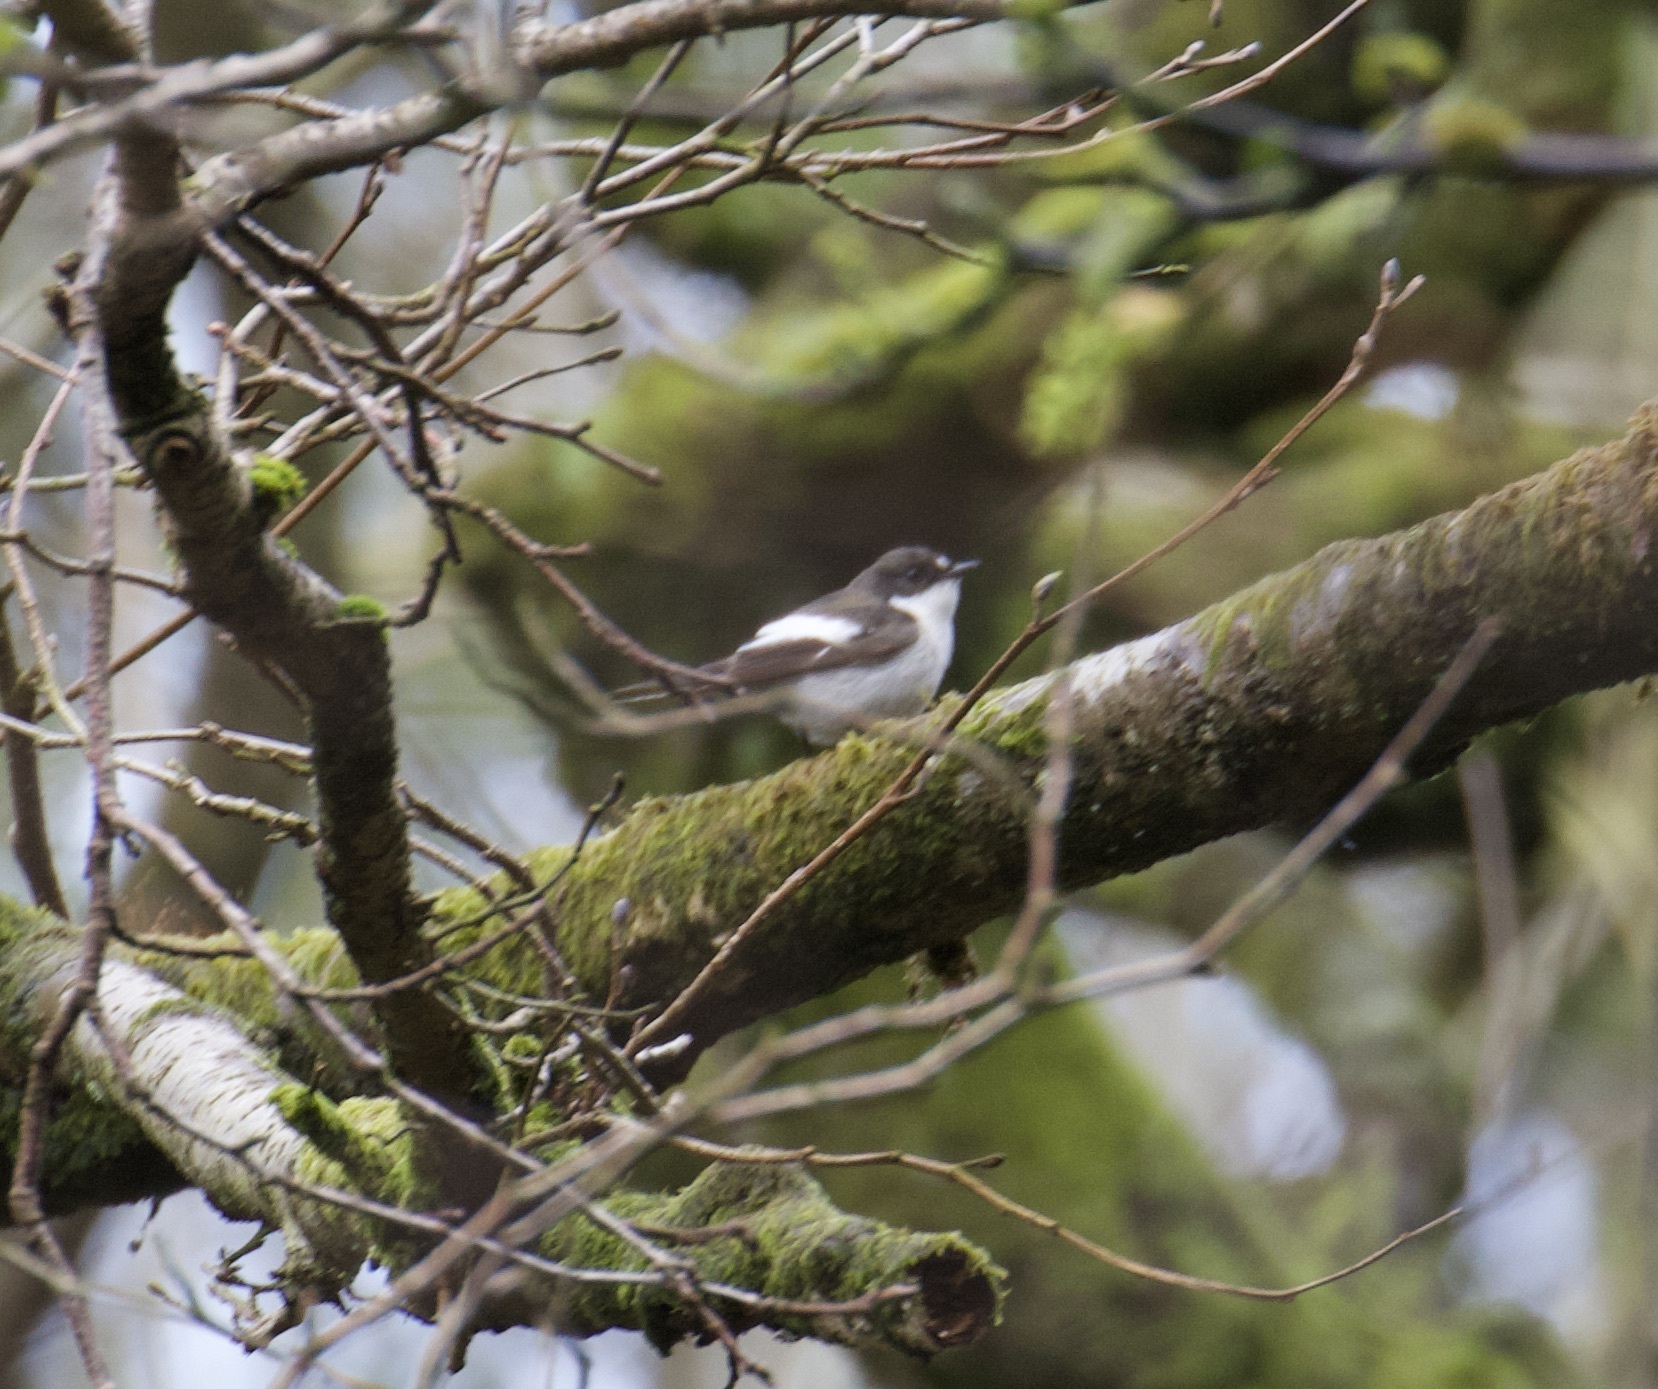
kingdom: Animalia
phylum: Chordata
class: Aves
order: Passeriformes
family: Muscicapidae
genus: Ficedula
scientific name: Ficedula hypoleuca
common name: European pied flycatcher
